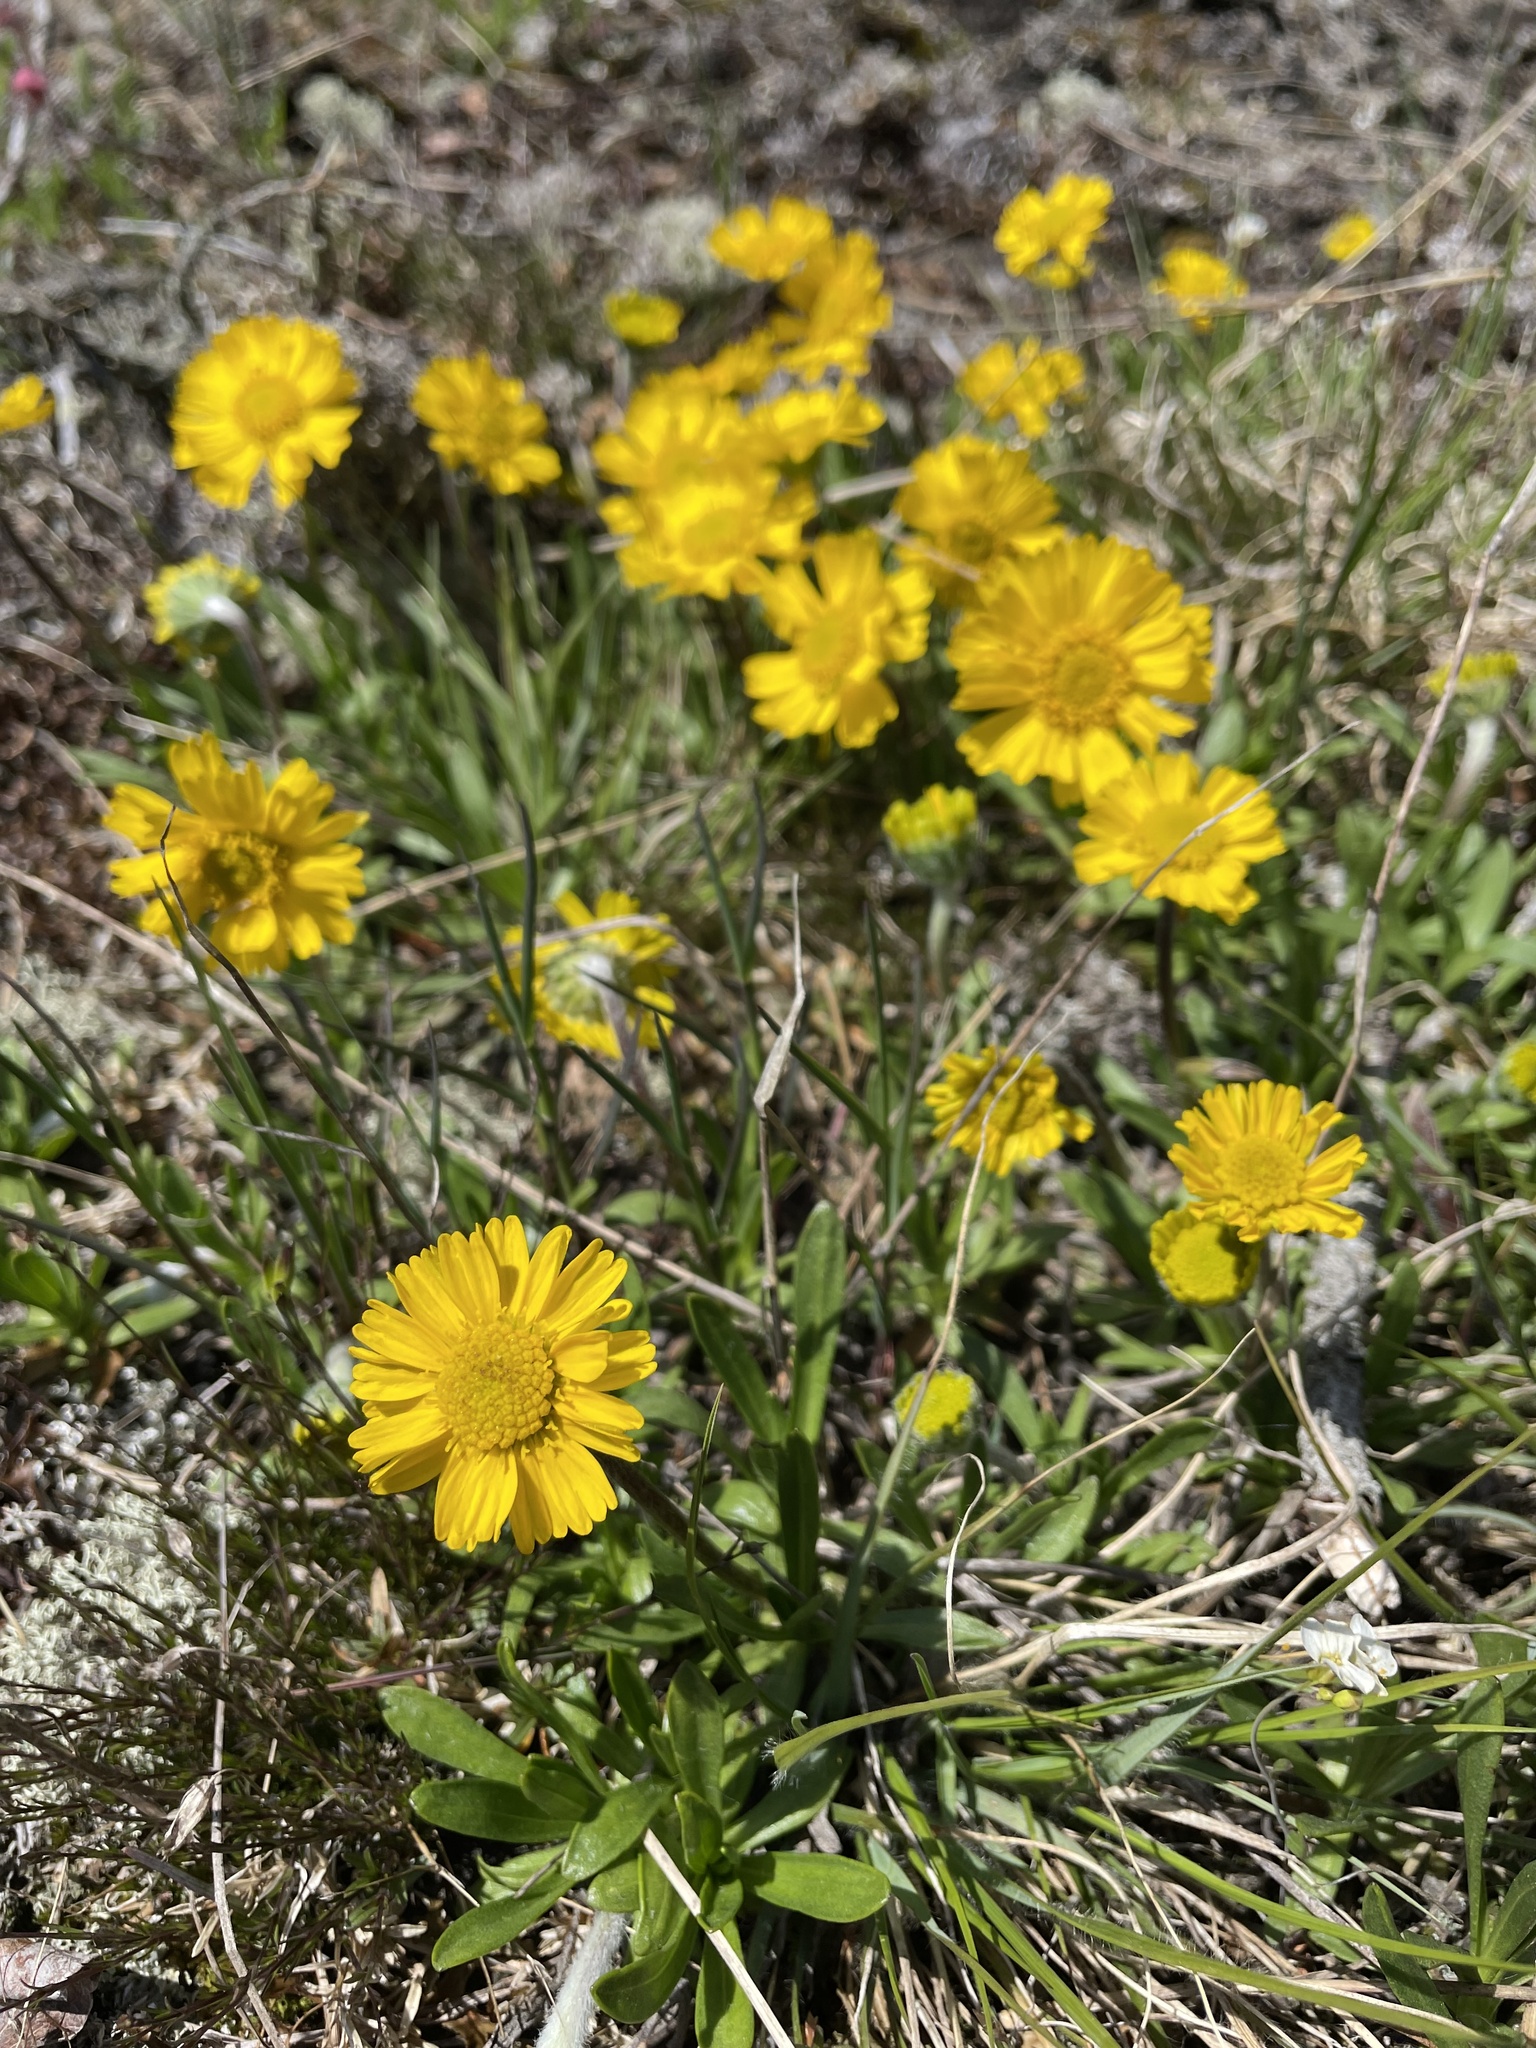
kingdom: Plantae
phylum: Tracheophyta
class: Magnoliopsida
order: Asterales
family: Asteraceae
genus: Tetraneuris
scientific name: Tetraneuris herbacea
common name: Lakeside daisy
